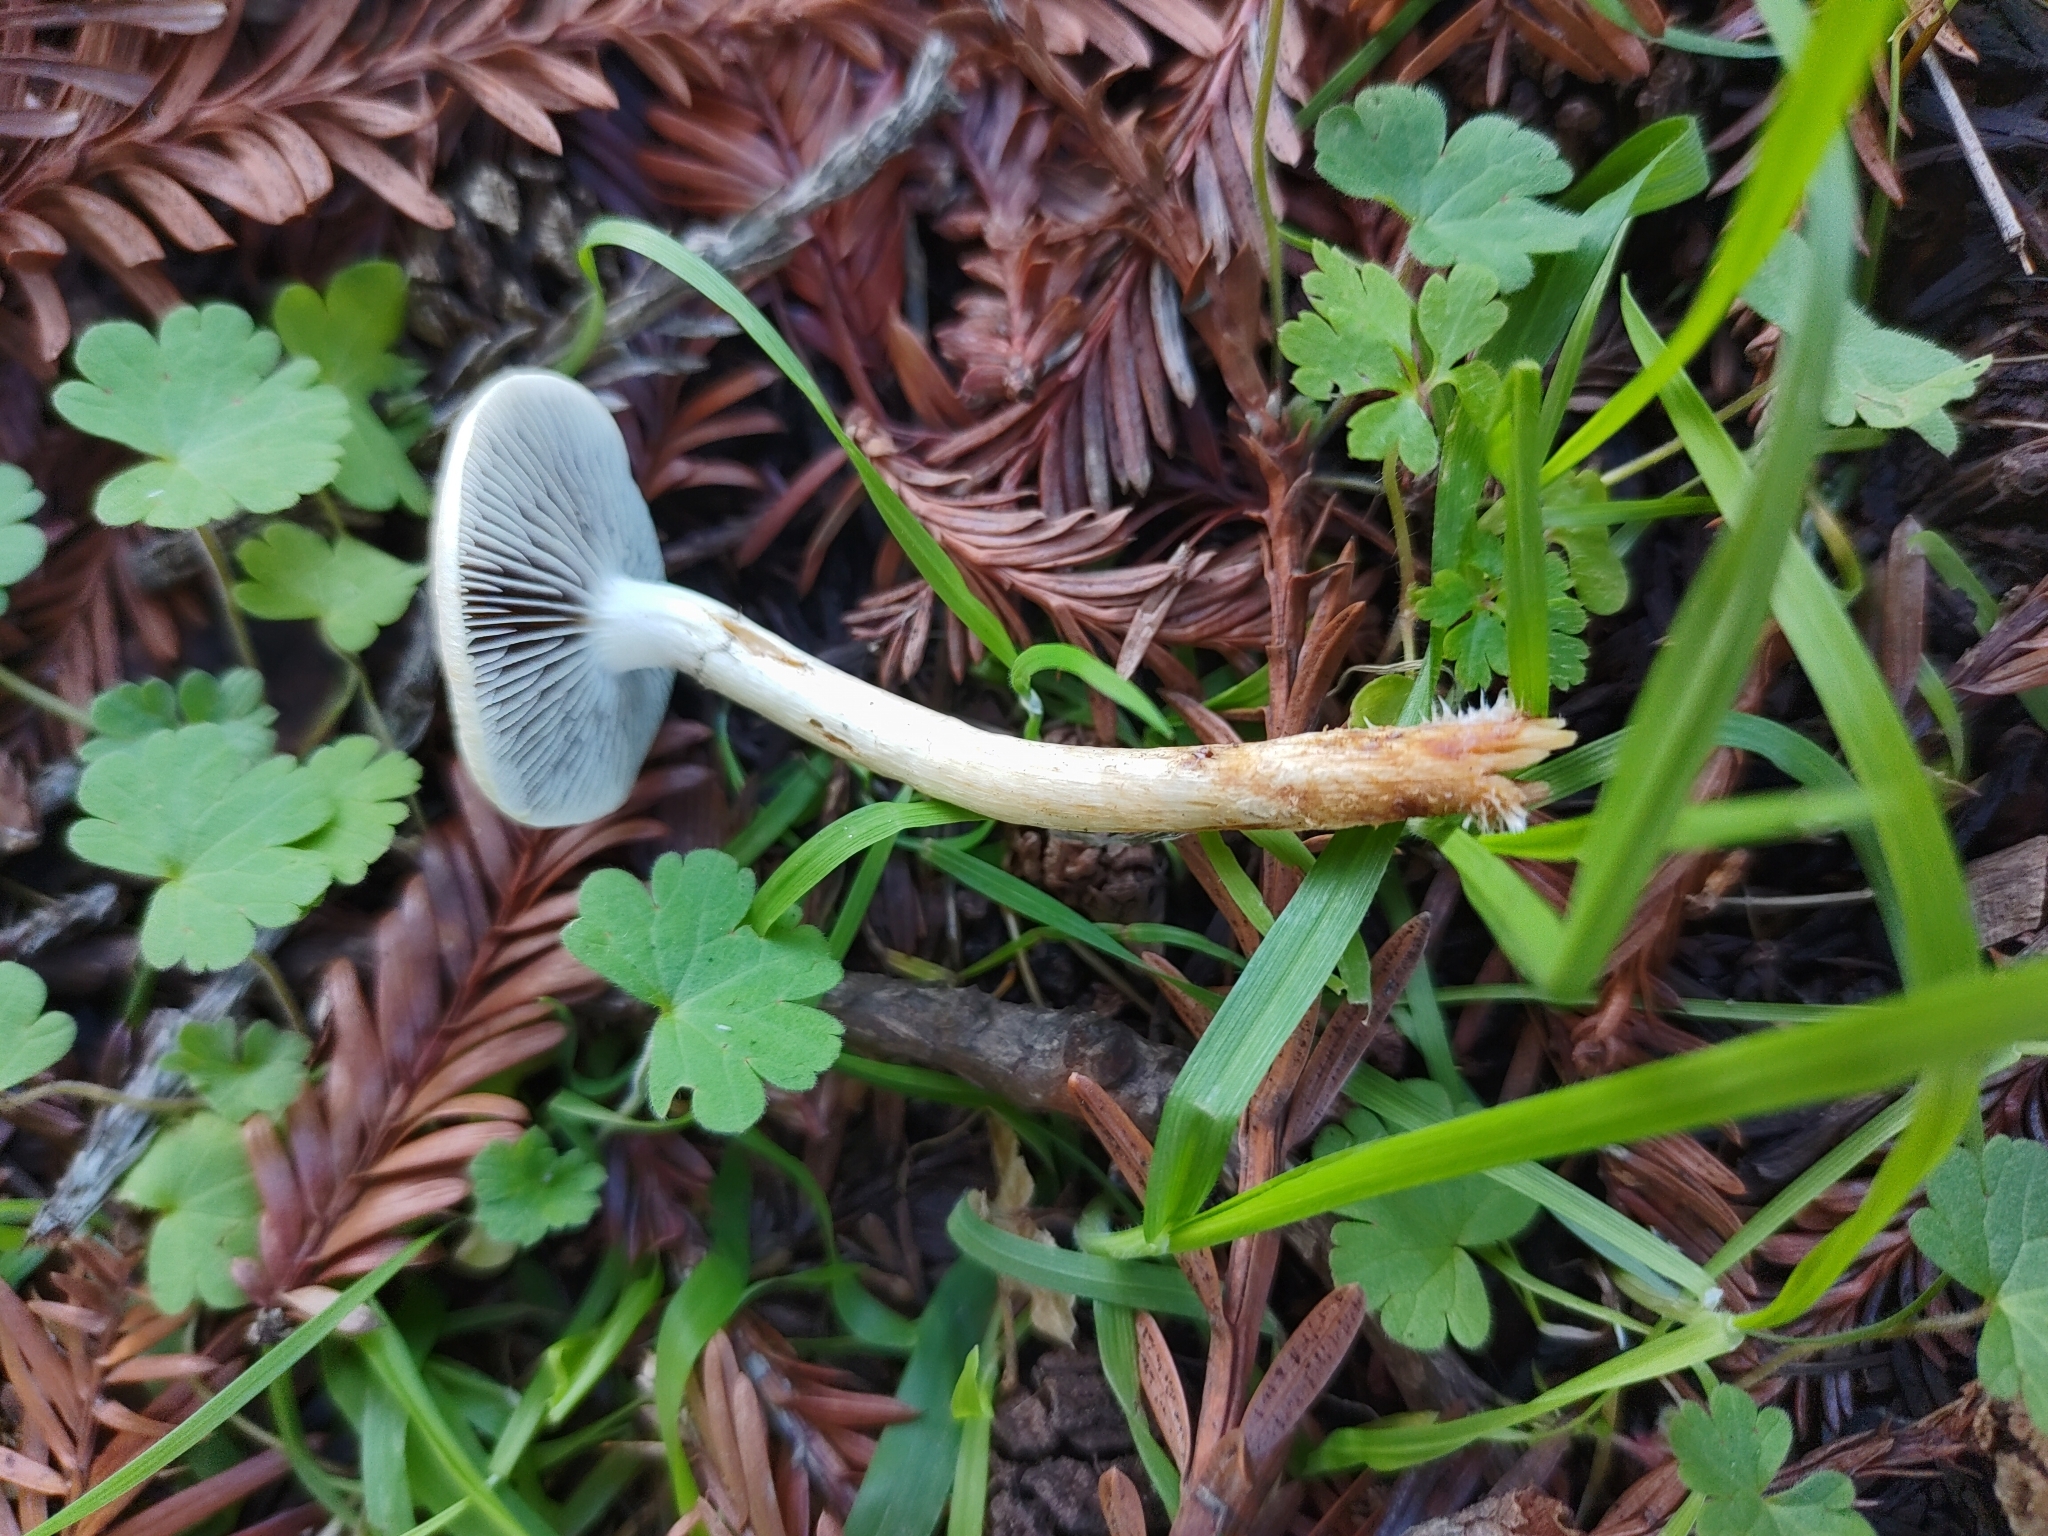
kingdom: Fungi
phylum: Basidiomycota
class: Agaricomycetes
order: Agaricales
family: Strophariaceae
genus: Leratiomyces
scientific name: Leratiomyces percevalii
